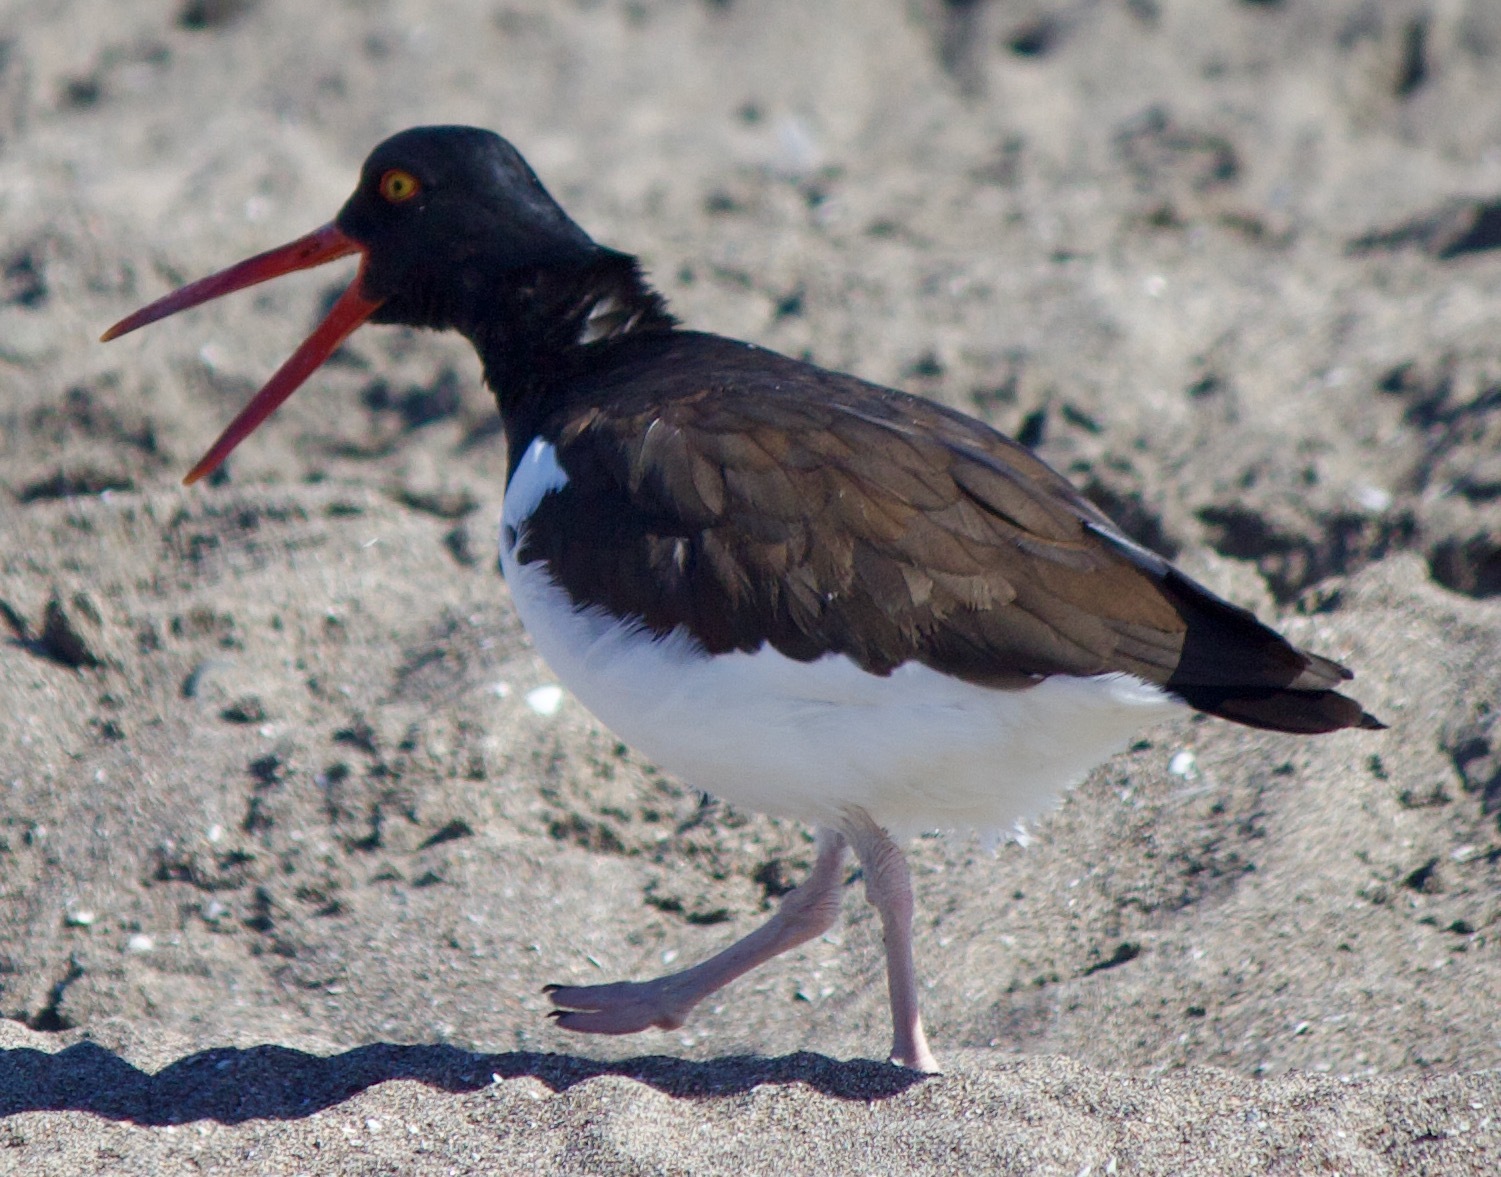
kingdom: Animalia
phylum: Chordata
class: Aves
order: Charadriiformes
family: Haematopodidae
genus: Haematopus
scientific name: Haematopus palliatus
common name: American oystercatcher
